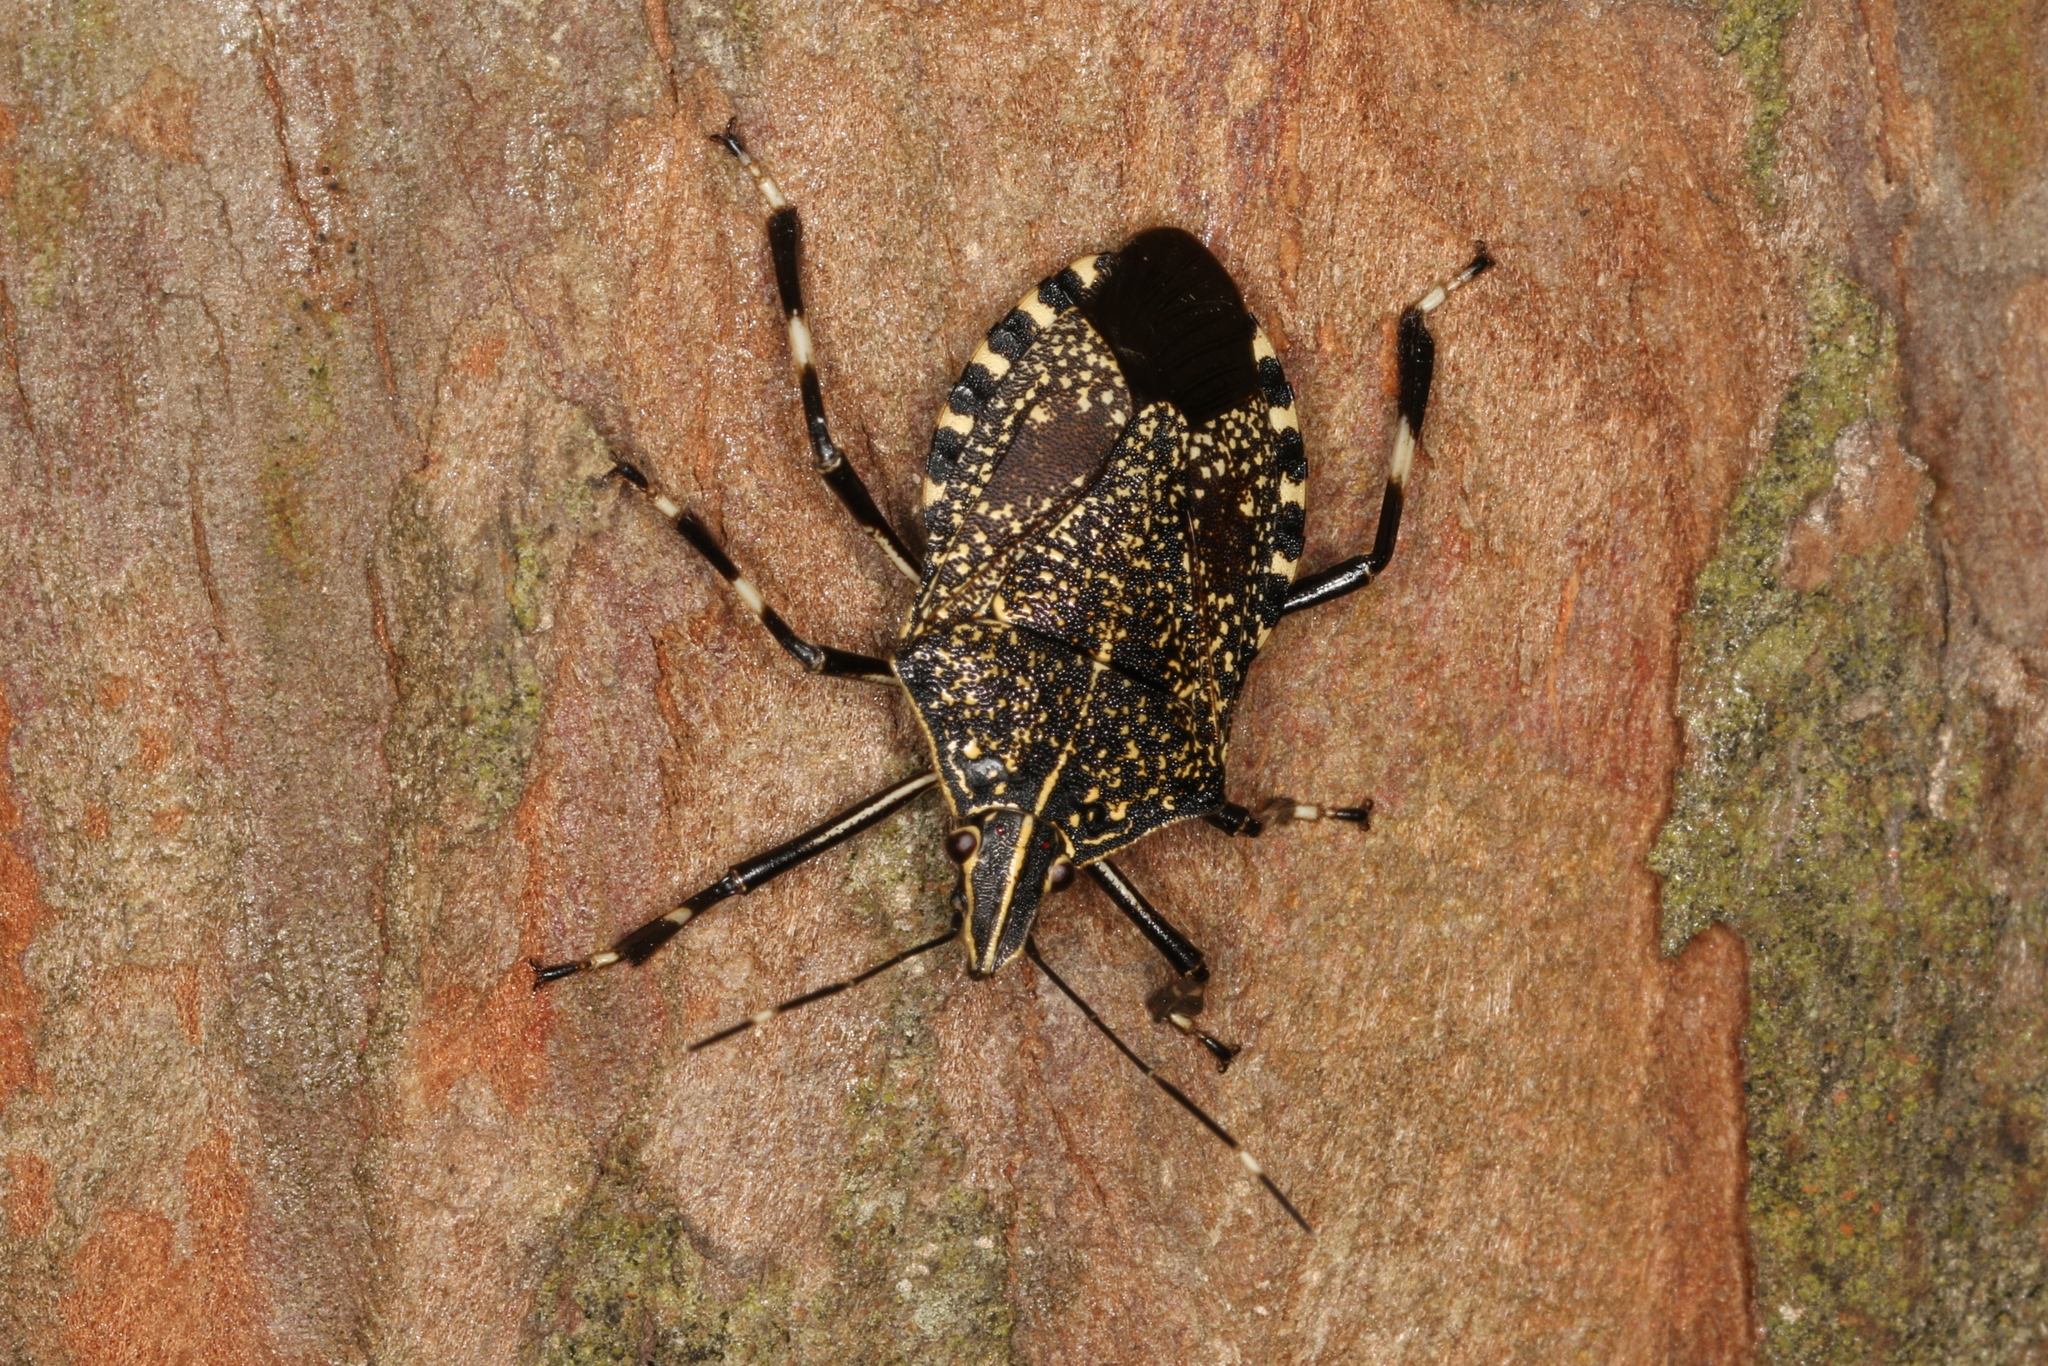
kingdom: Animalia
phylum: Arthropoda
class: Insecta
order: Hemiptera
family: Pentatomidae
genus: Erthesina
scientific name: Erthesina fullo
